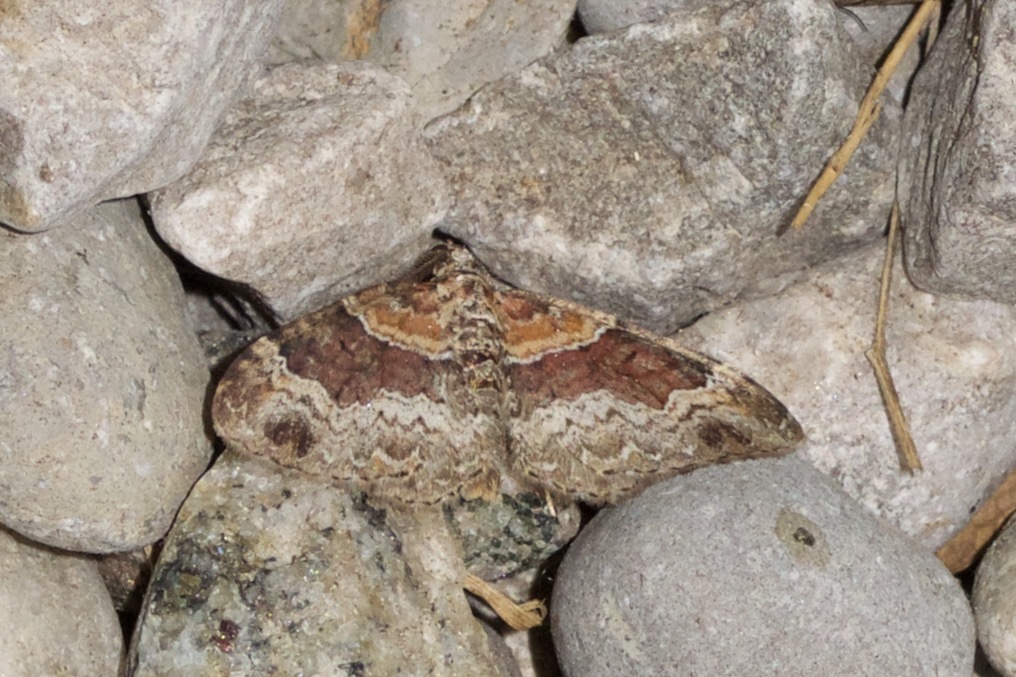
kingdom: Animalia
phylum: Arthropoda
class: Insecta
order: Lepidoptera
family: Geometridae
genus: Xanthorhoe
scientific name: Xanthorhoe ferrugata
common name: Dark-barred twin-spot carpet
